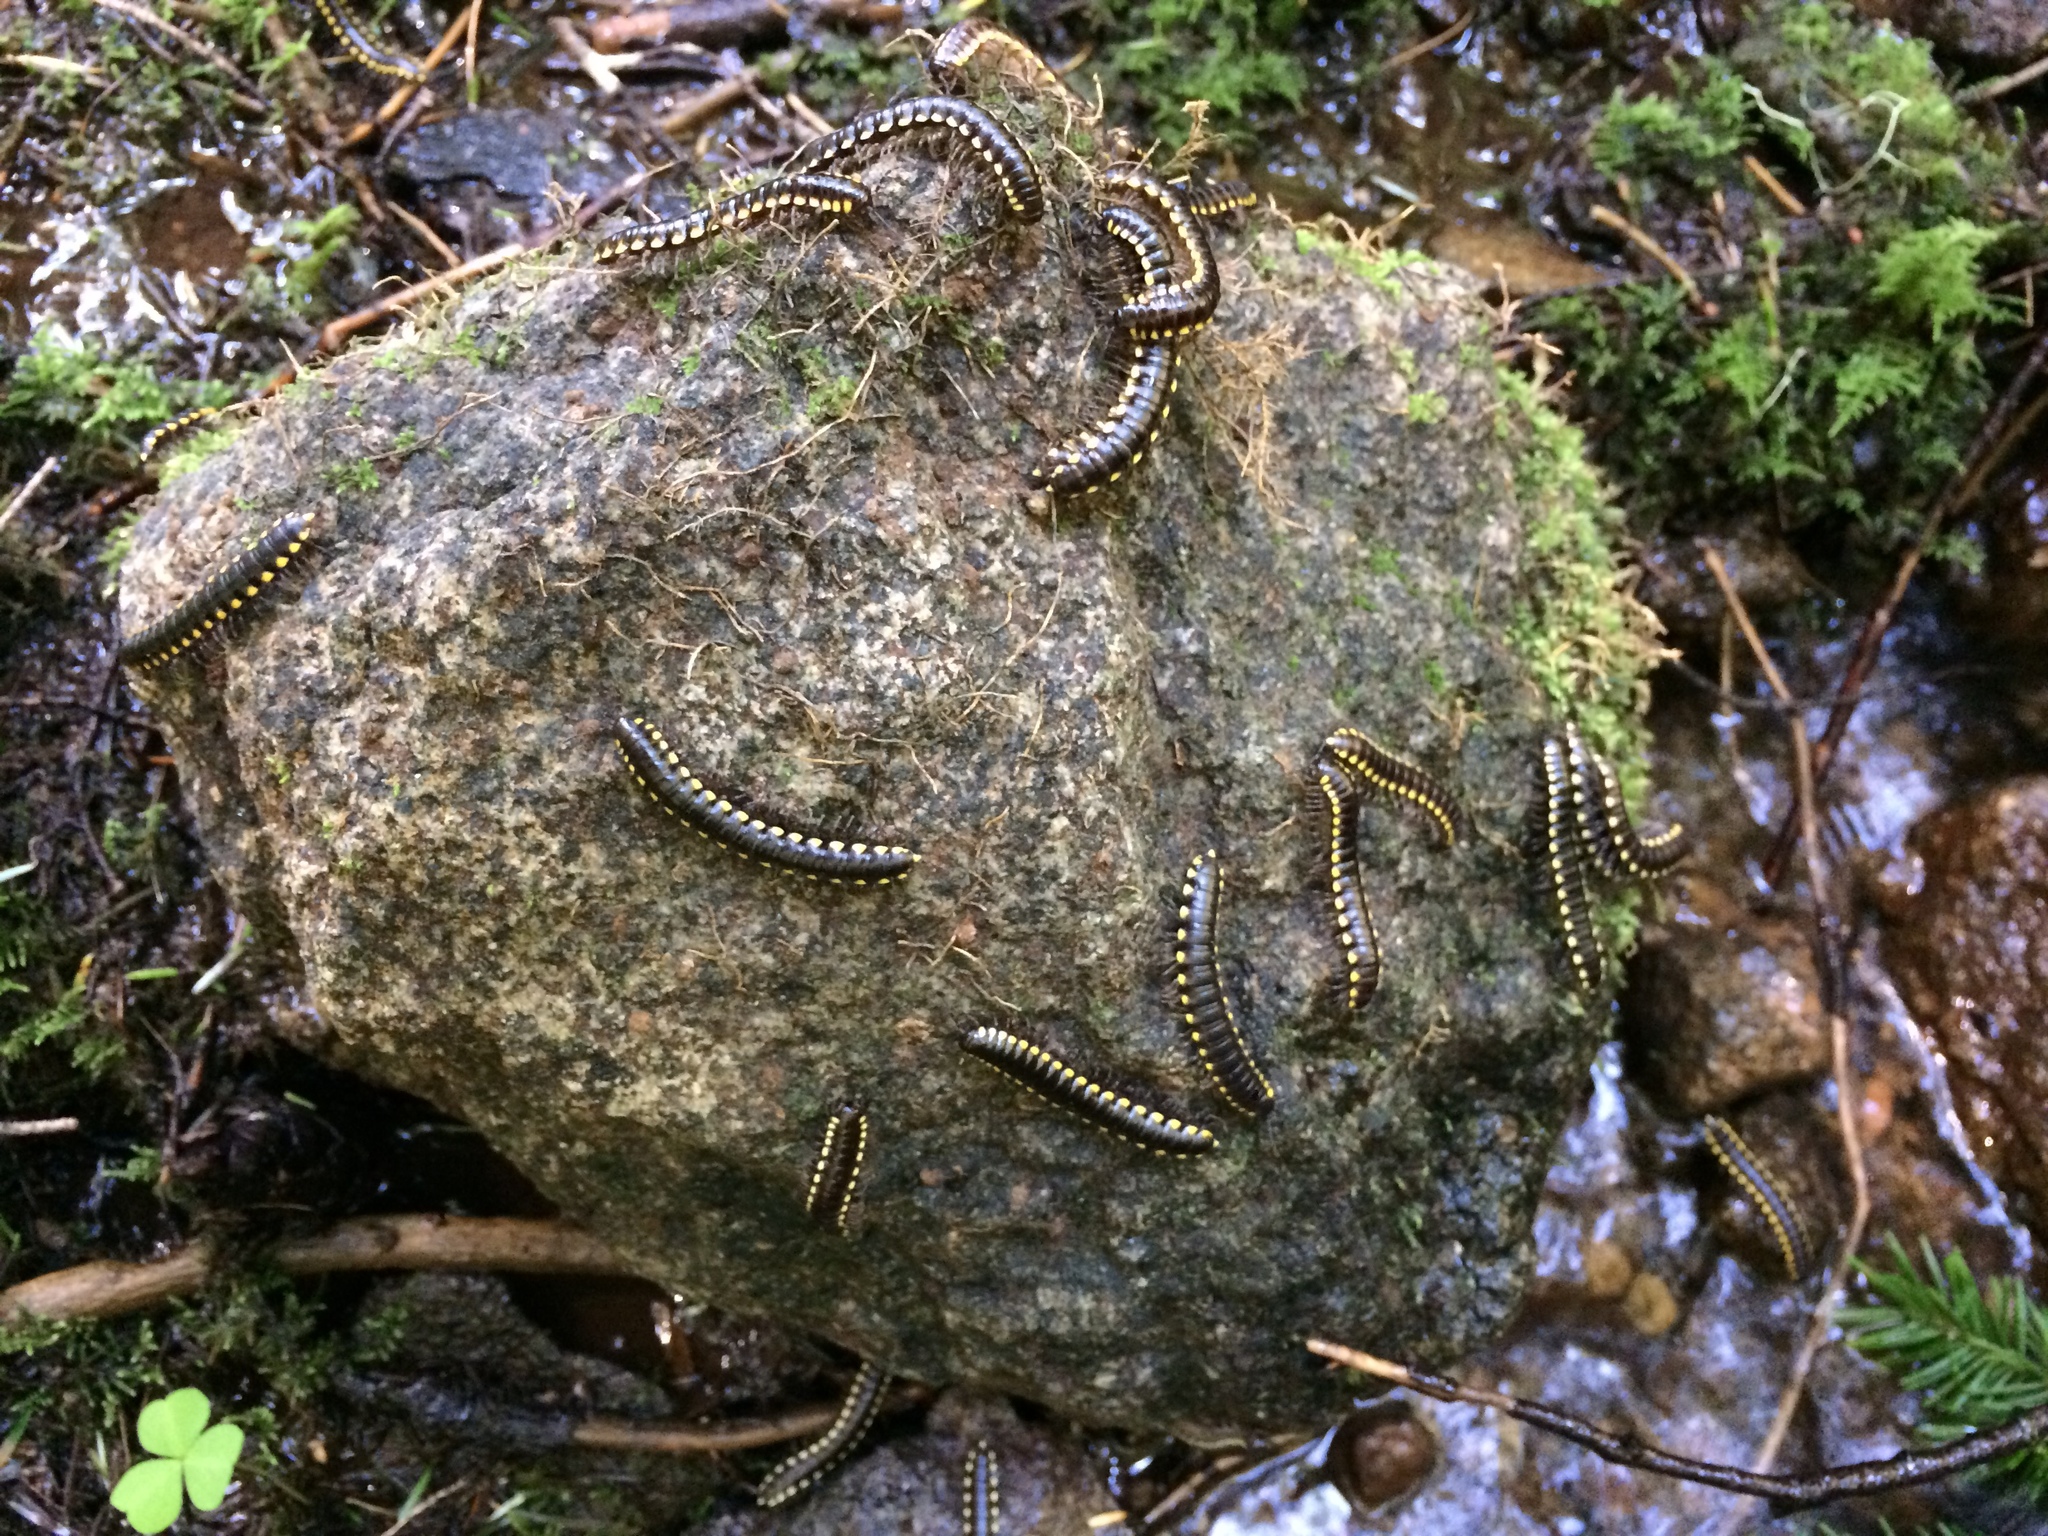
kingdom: Animalia
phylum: Arthropoda
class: Diplopoda
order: Polydesmida
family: Xystodesmidae
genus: Harpaphe
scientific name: Harpaphe haydeniana
